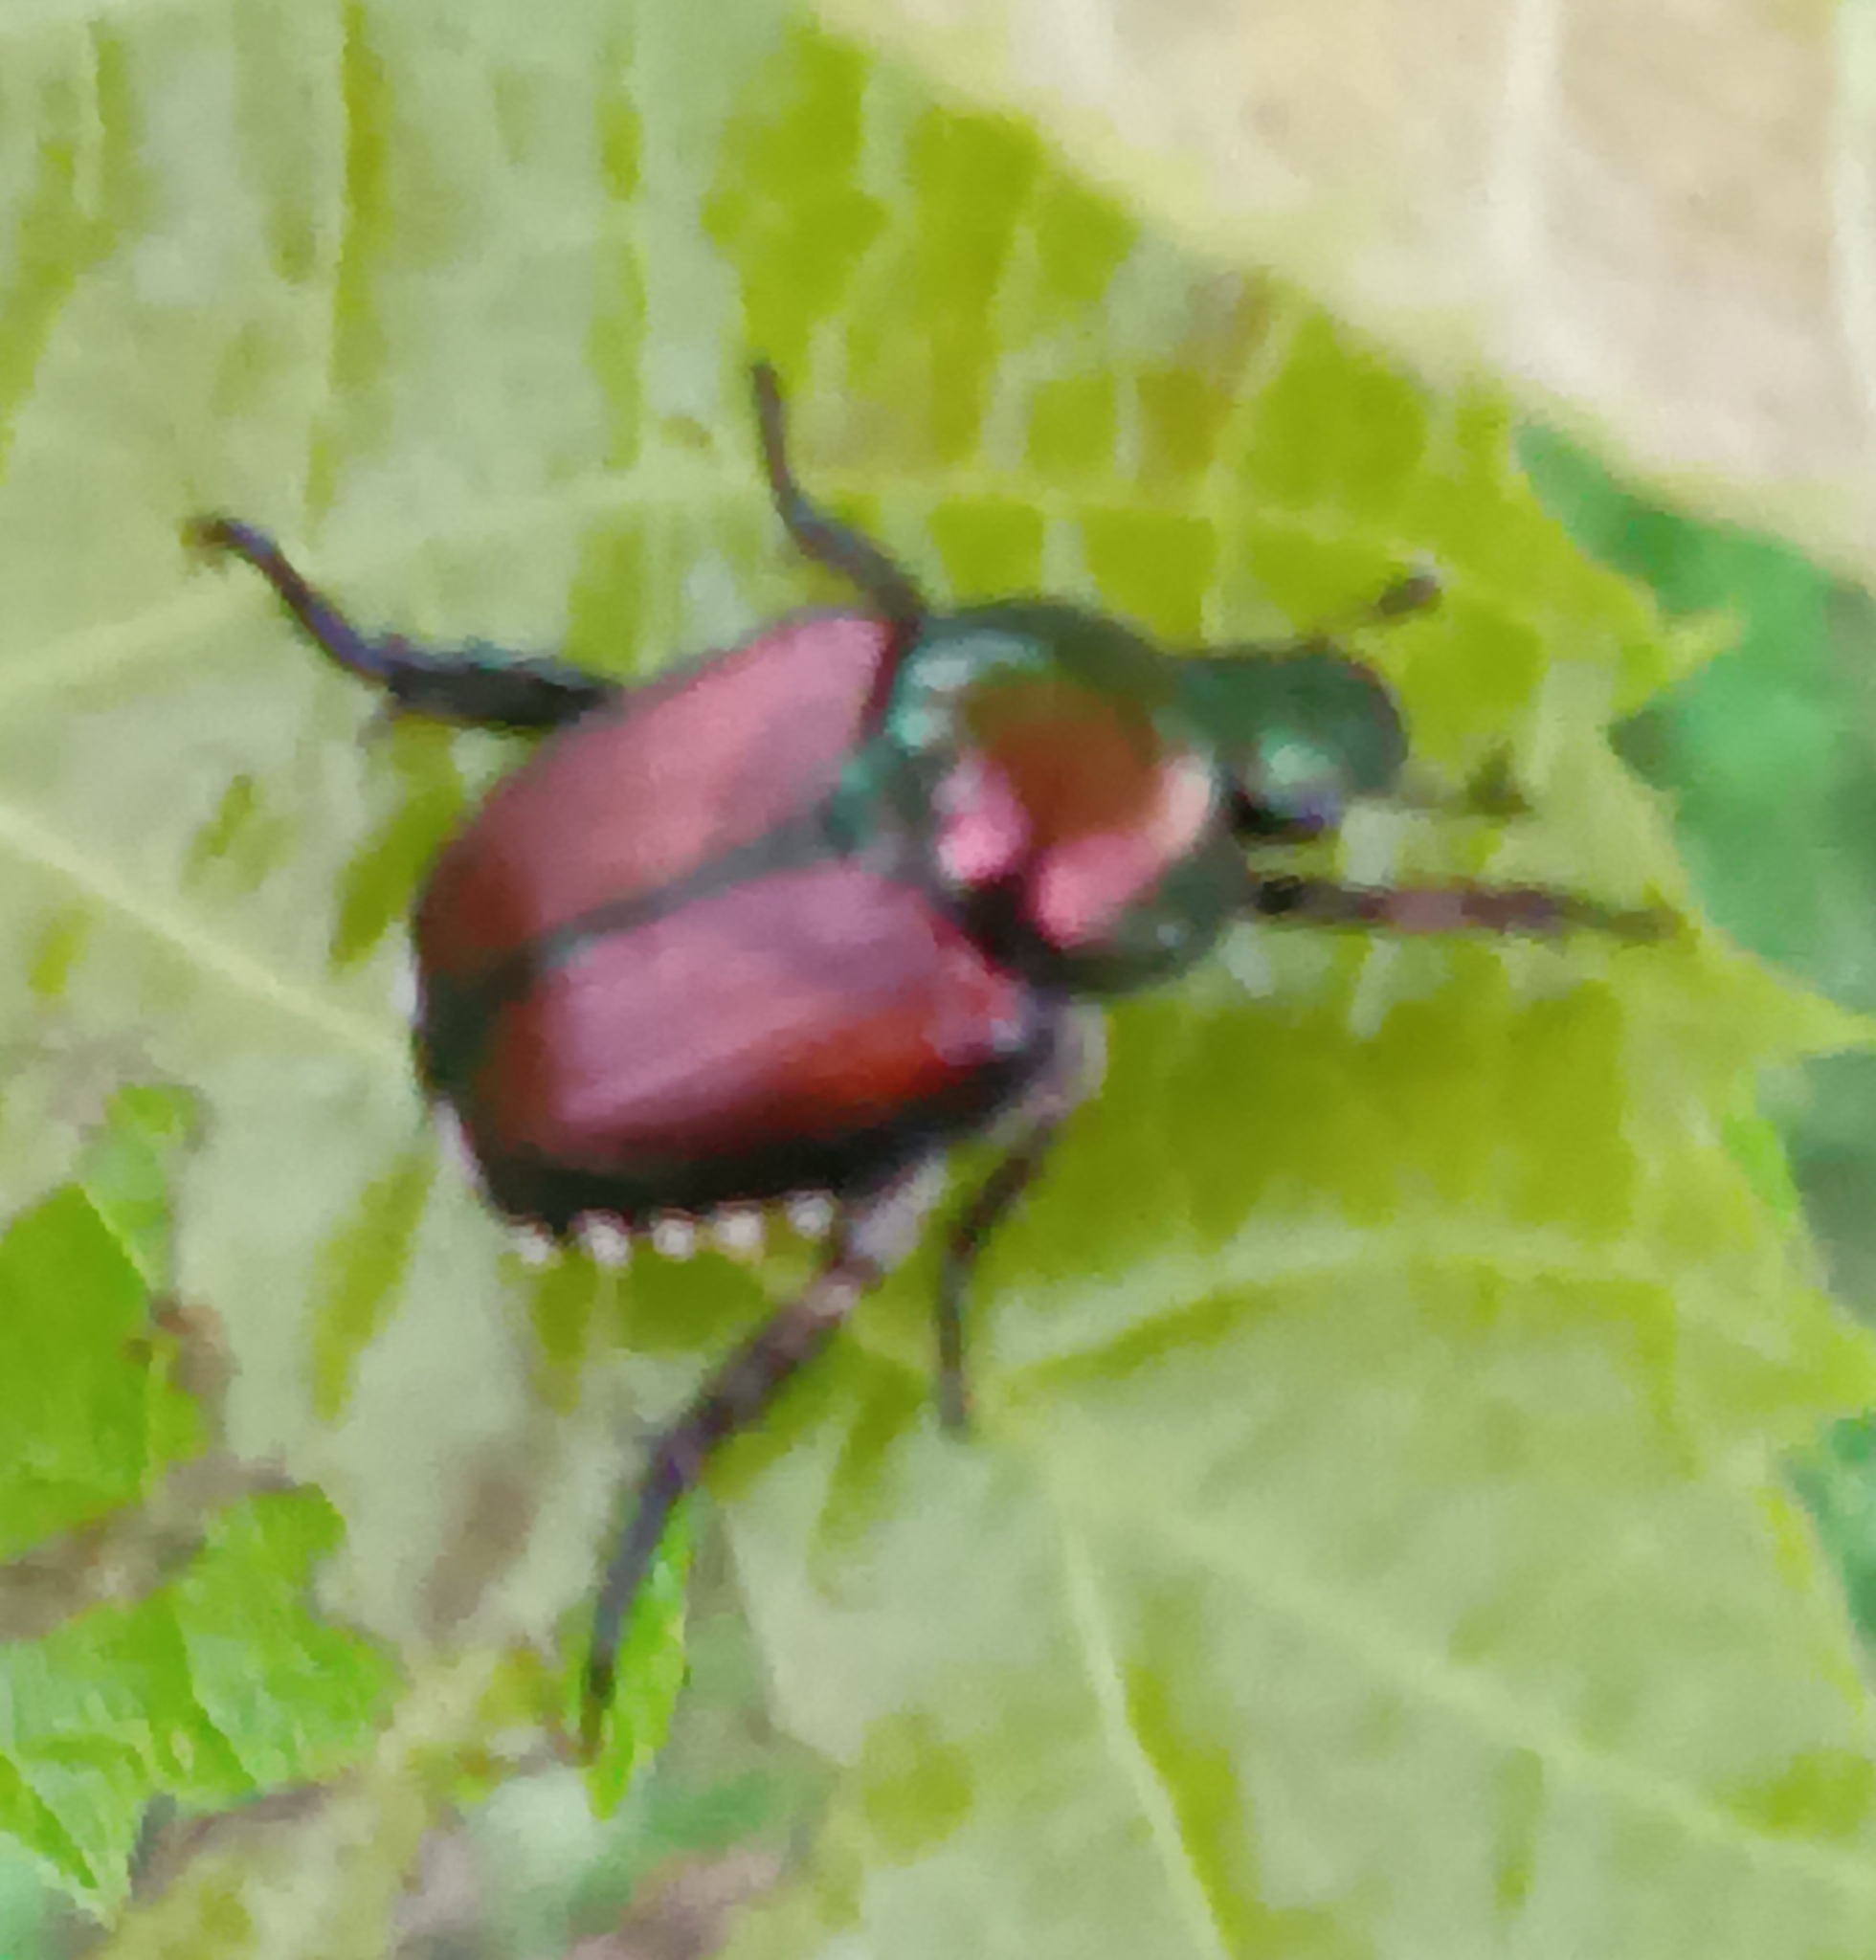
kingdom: Animalia
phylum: Arthropoda
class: Insecta
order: Coleoptera
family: Scarabaeidae
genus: Popillia
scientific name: Popillia japonica
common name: Japanese beetle
